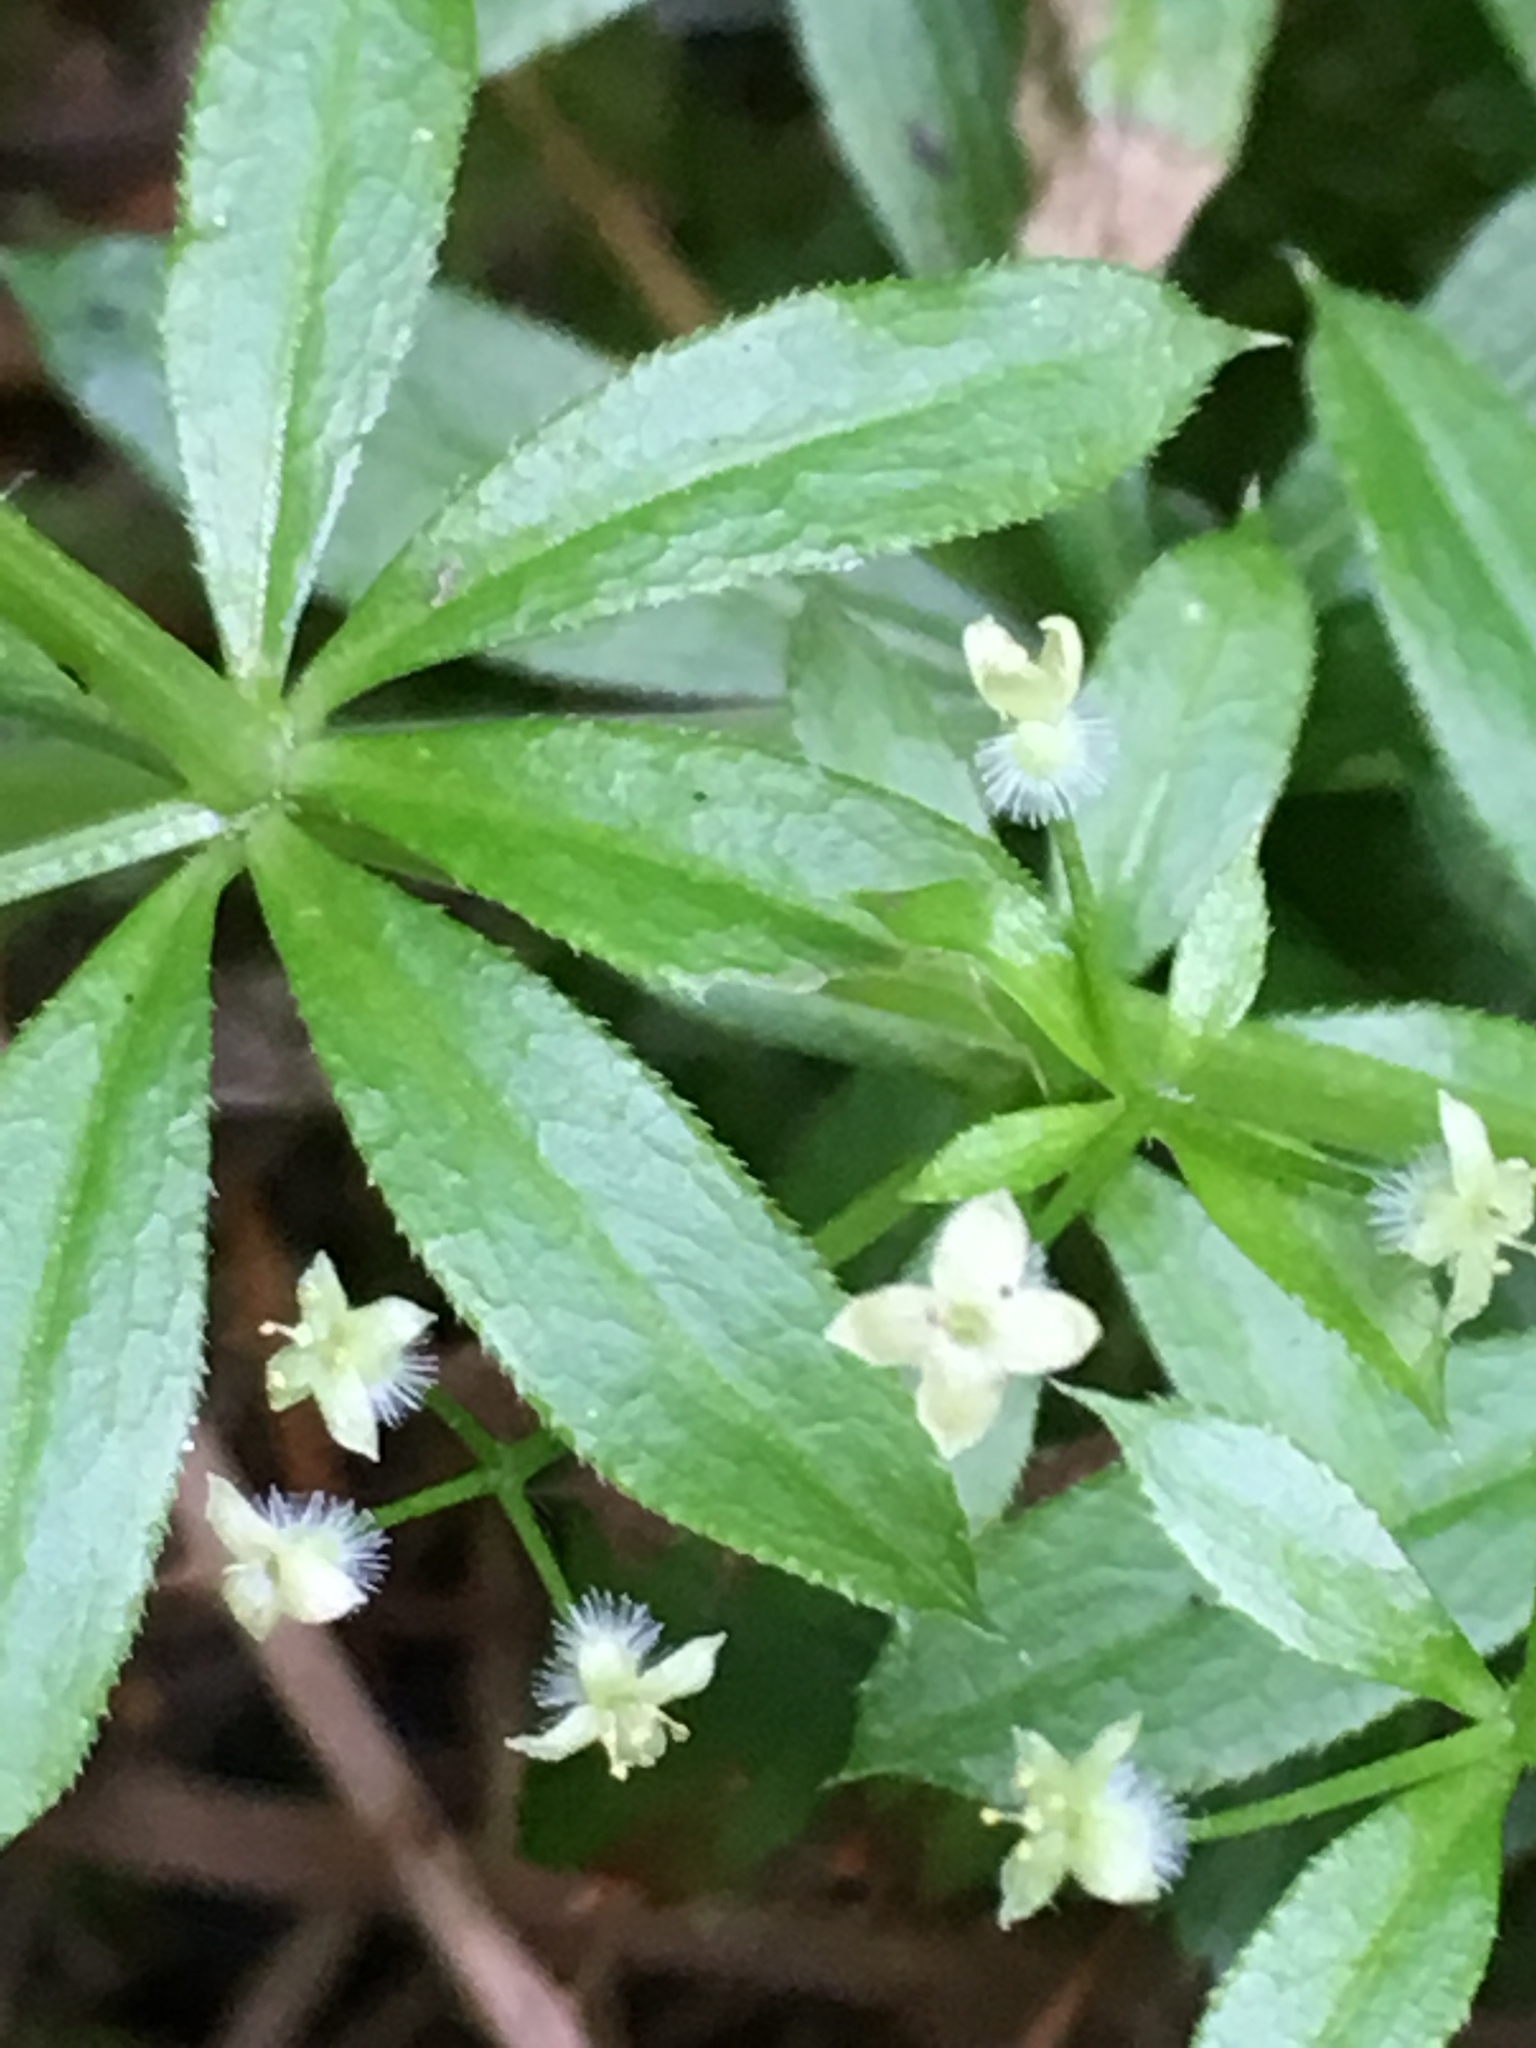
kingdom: Plantae
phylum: Tracheophyta
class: Magnoliopsida
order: Gentianales
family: Rubiaceae
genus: Galium
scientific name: Galium triflorum
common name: Fragrant bedstraw
